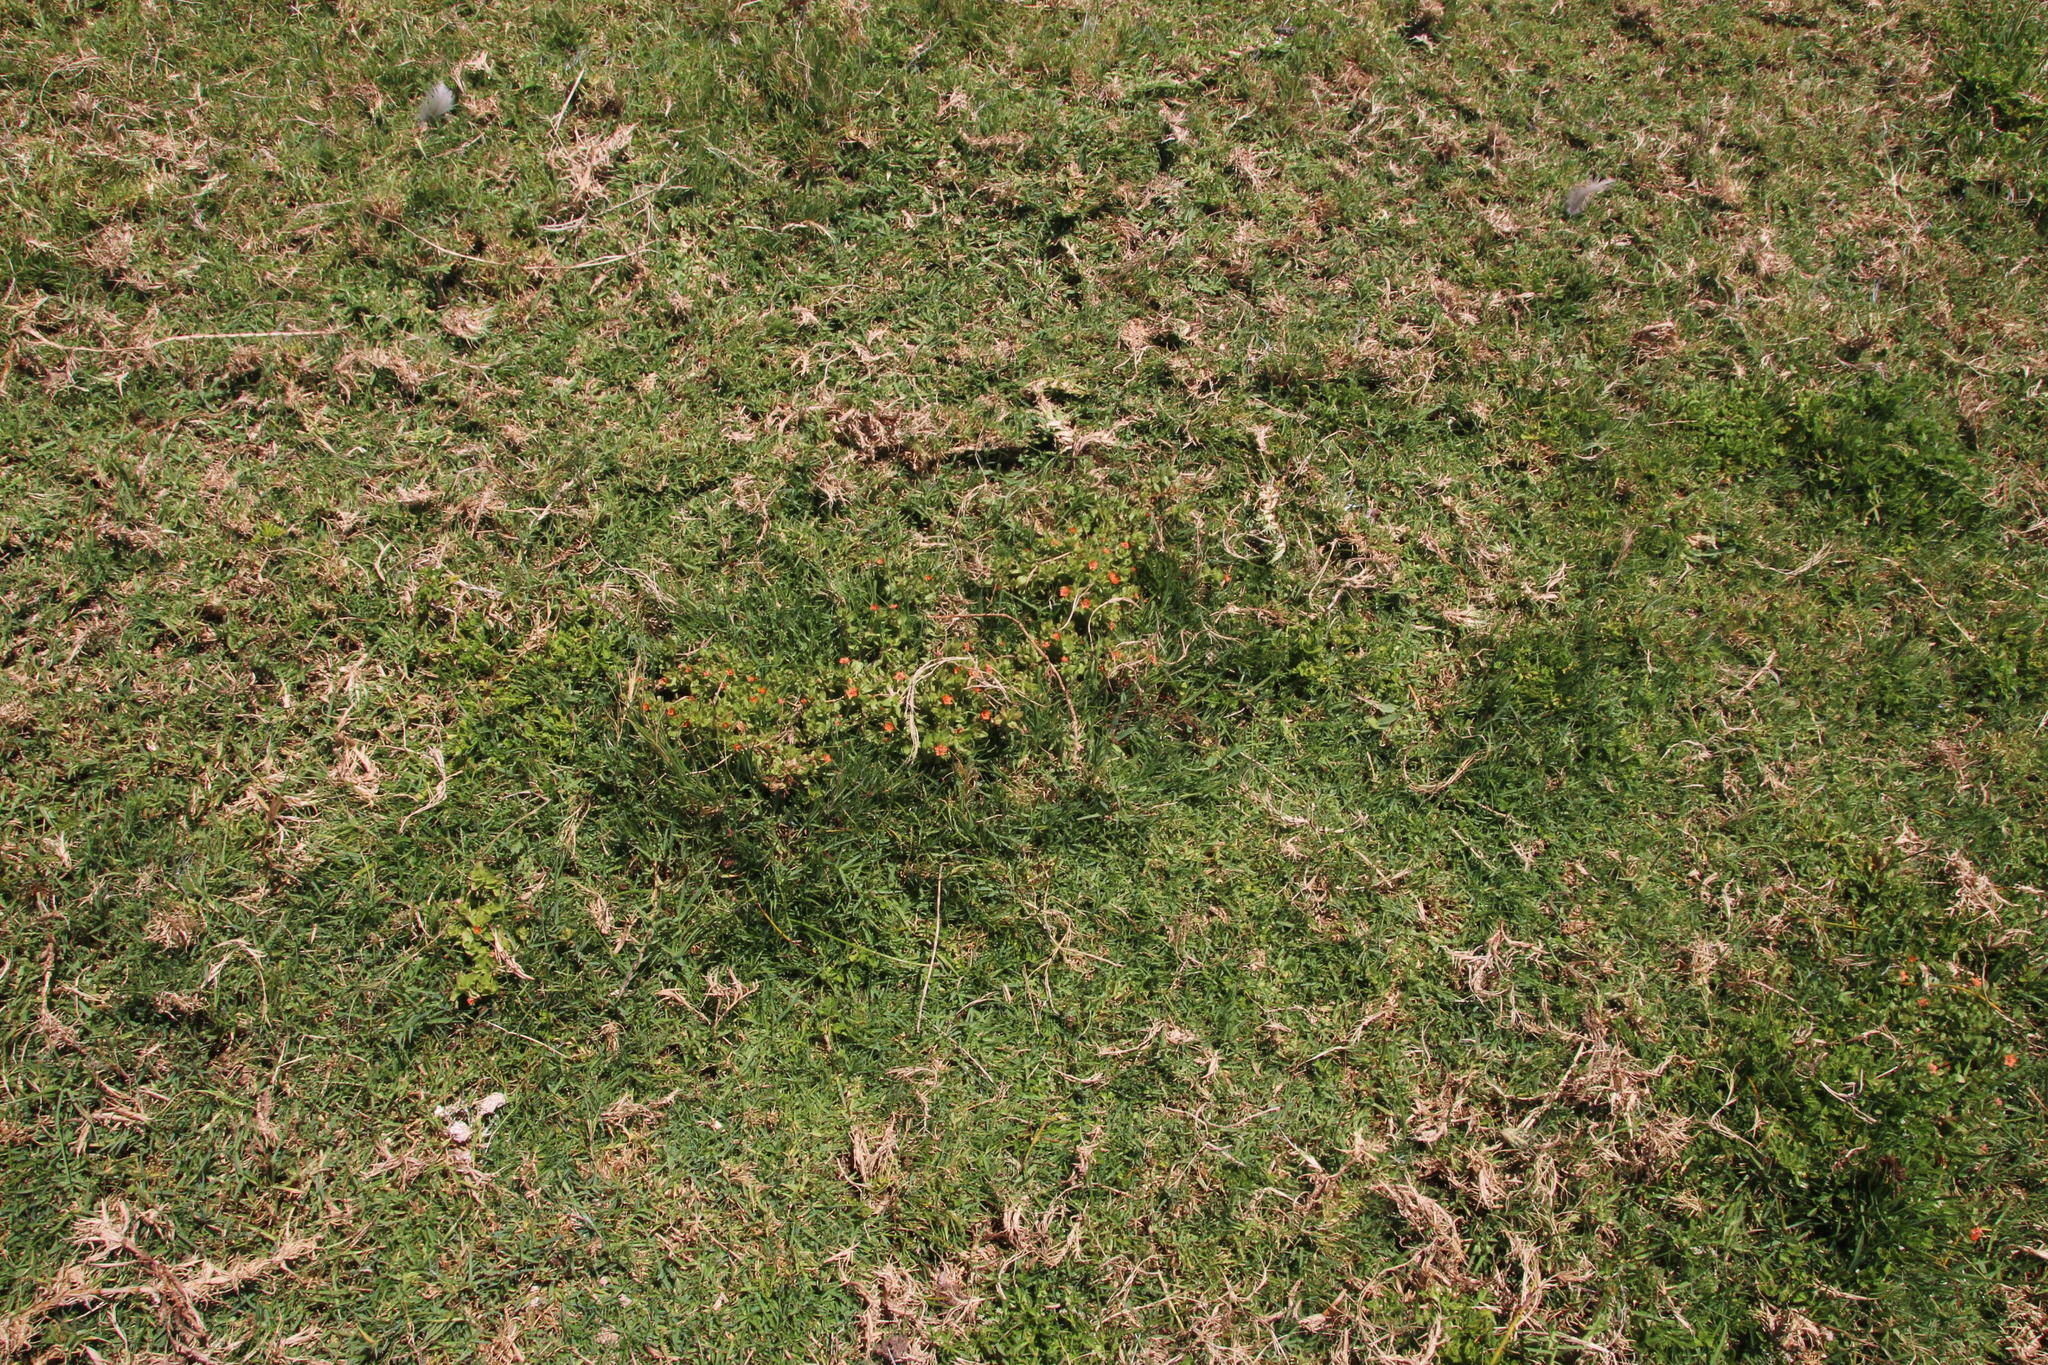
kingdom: Plantae
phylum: Tracheophyta
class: Magnoliopsida
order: Ericales
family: Primulaceae
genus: Lysimachia
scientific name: Lysimachia arvensis
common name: Scarlet pimpernel
